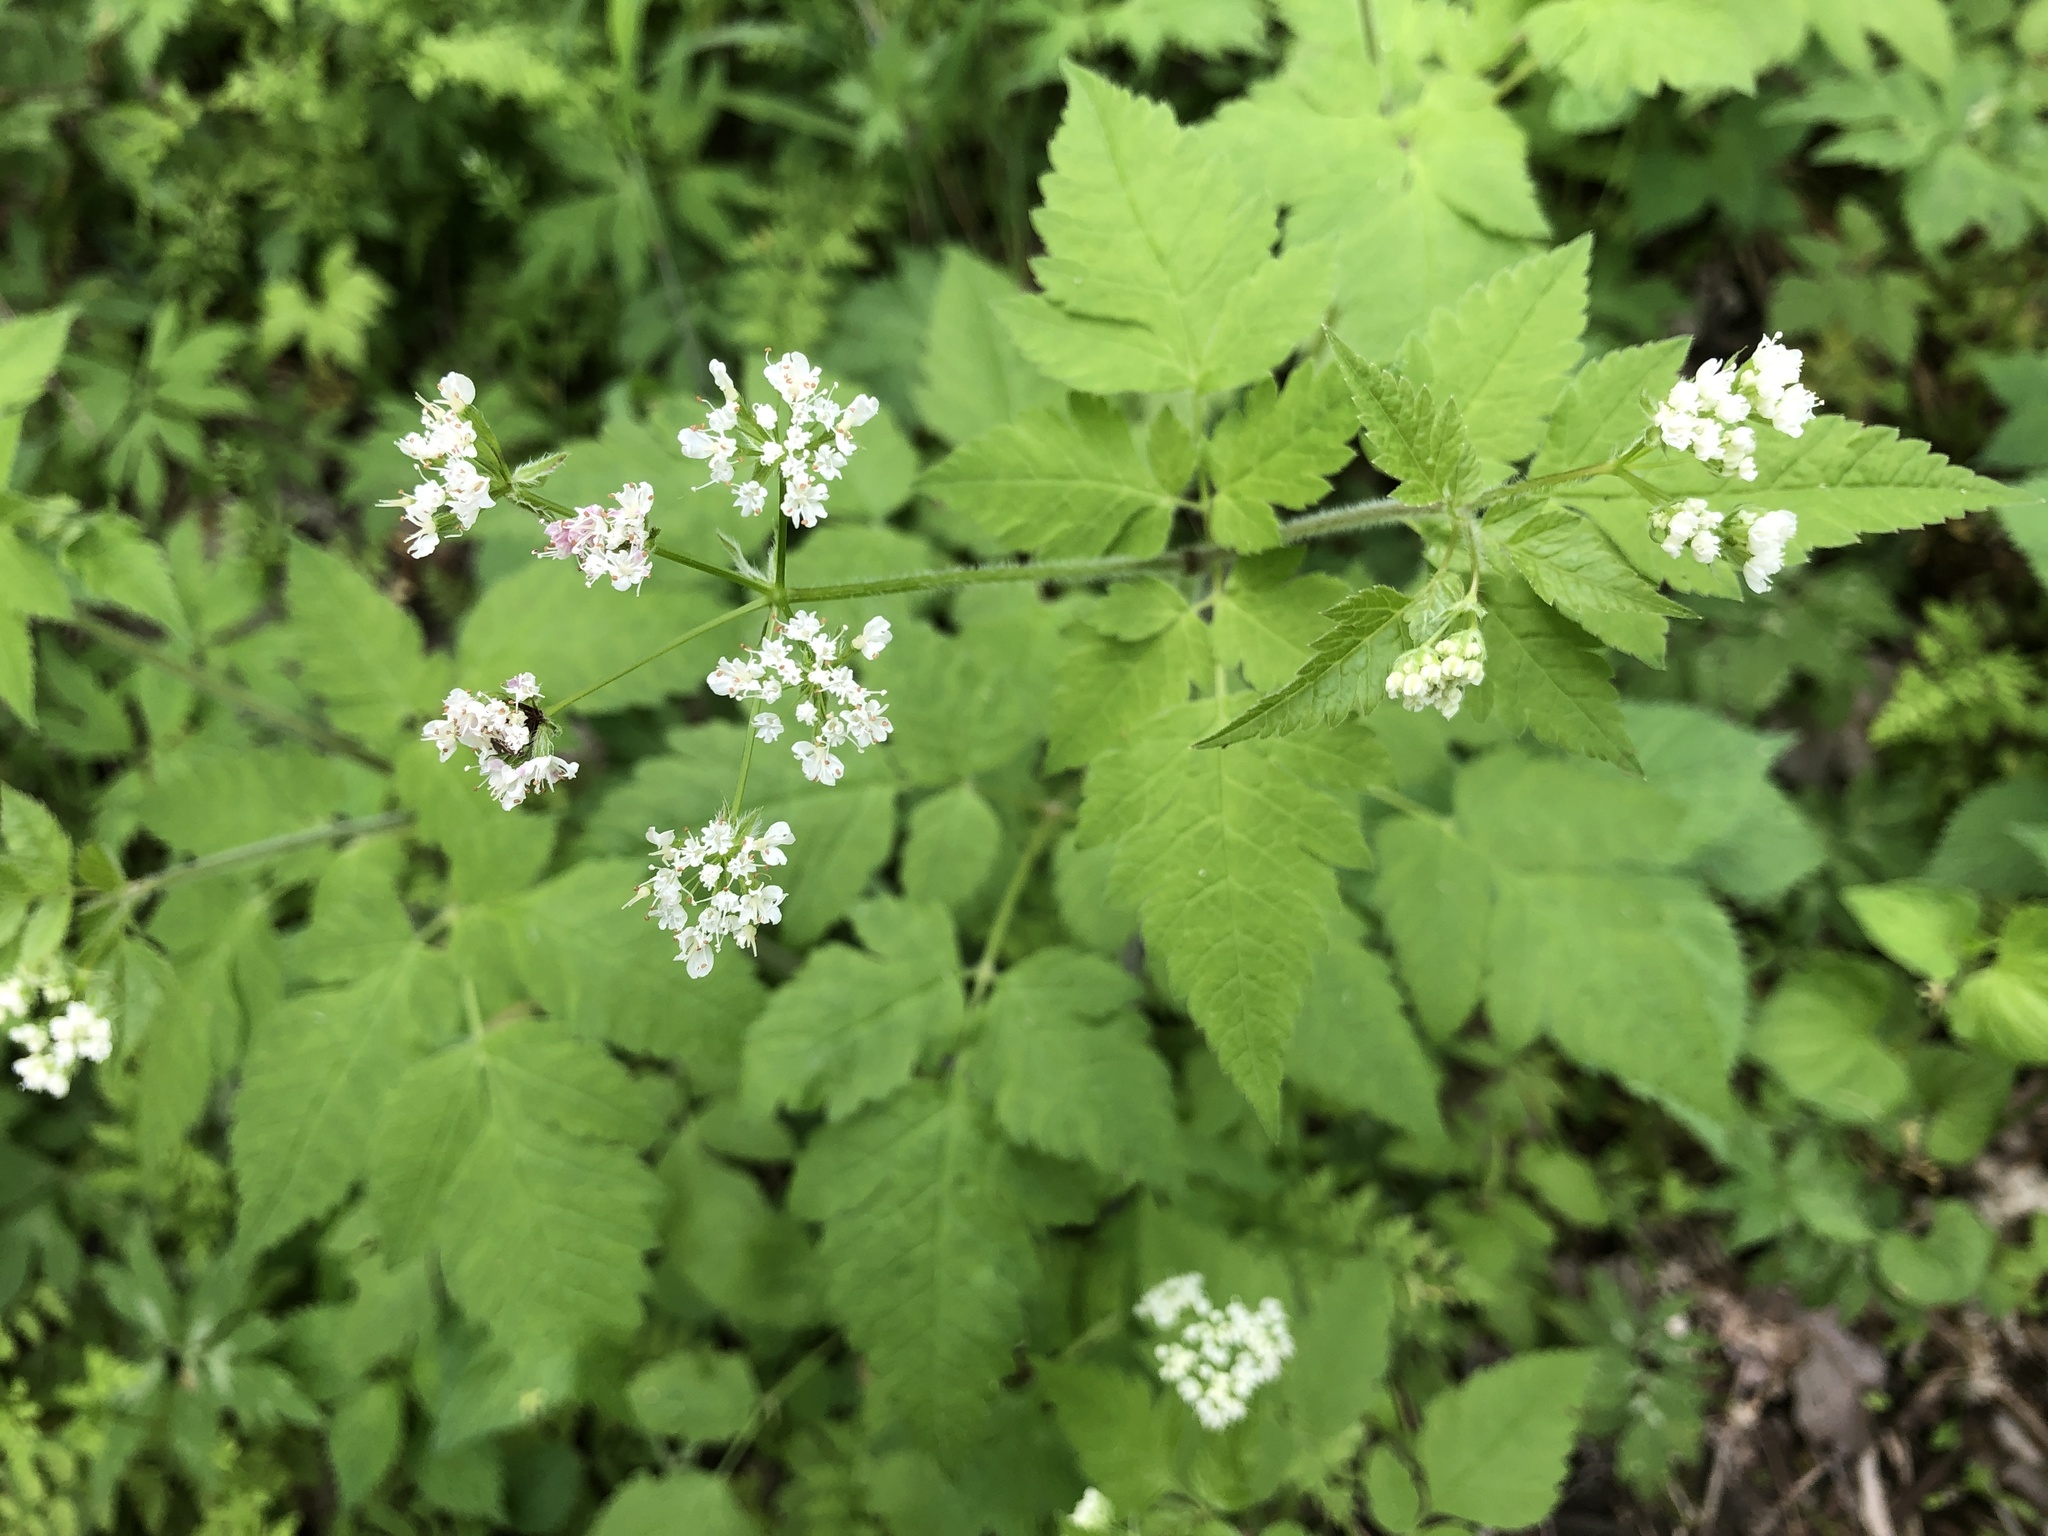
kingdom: Plantae
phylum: Tracheophyta
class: Magnoliopsida
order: Apiales
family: Apiaceae
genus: Osmorhiza
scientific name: Osmorhiza longistylis
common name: Smooth sweet cicely
